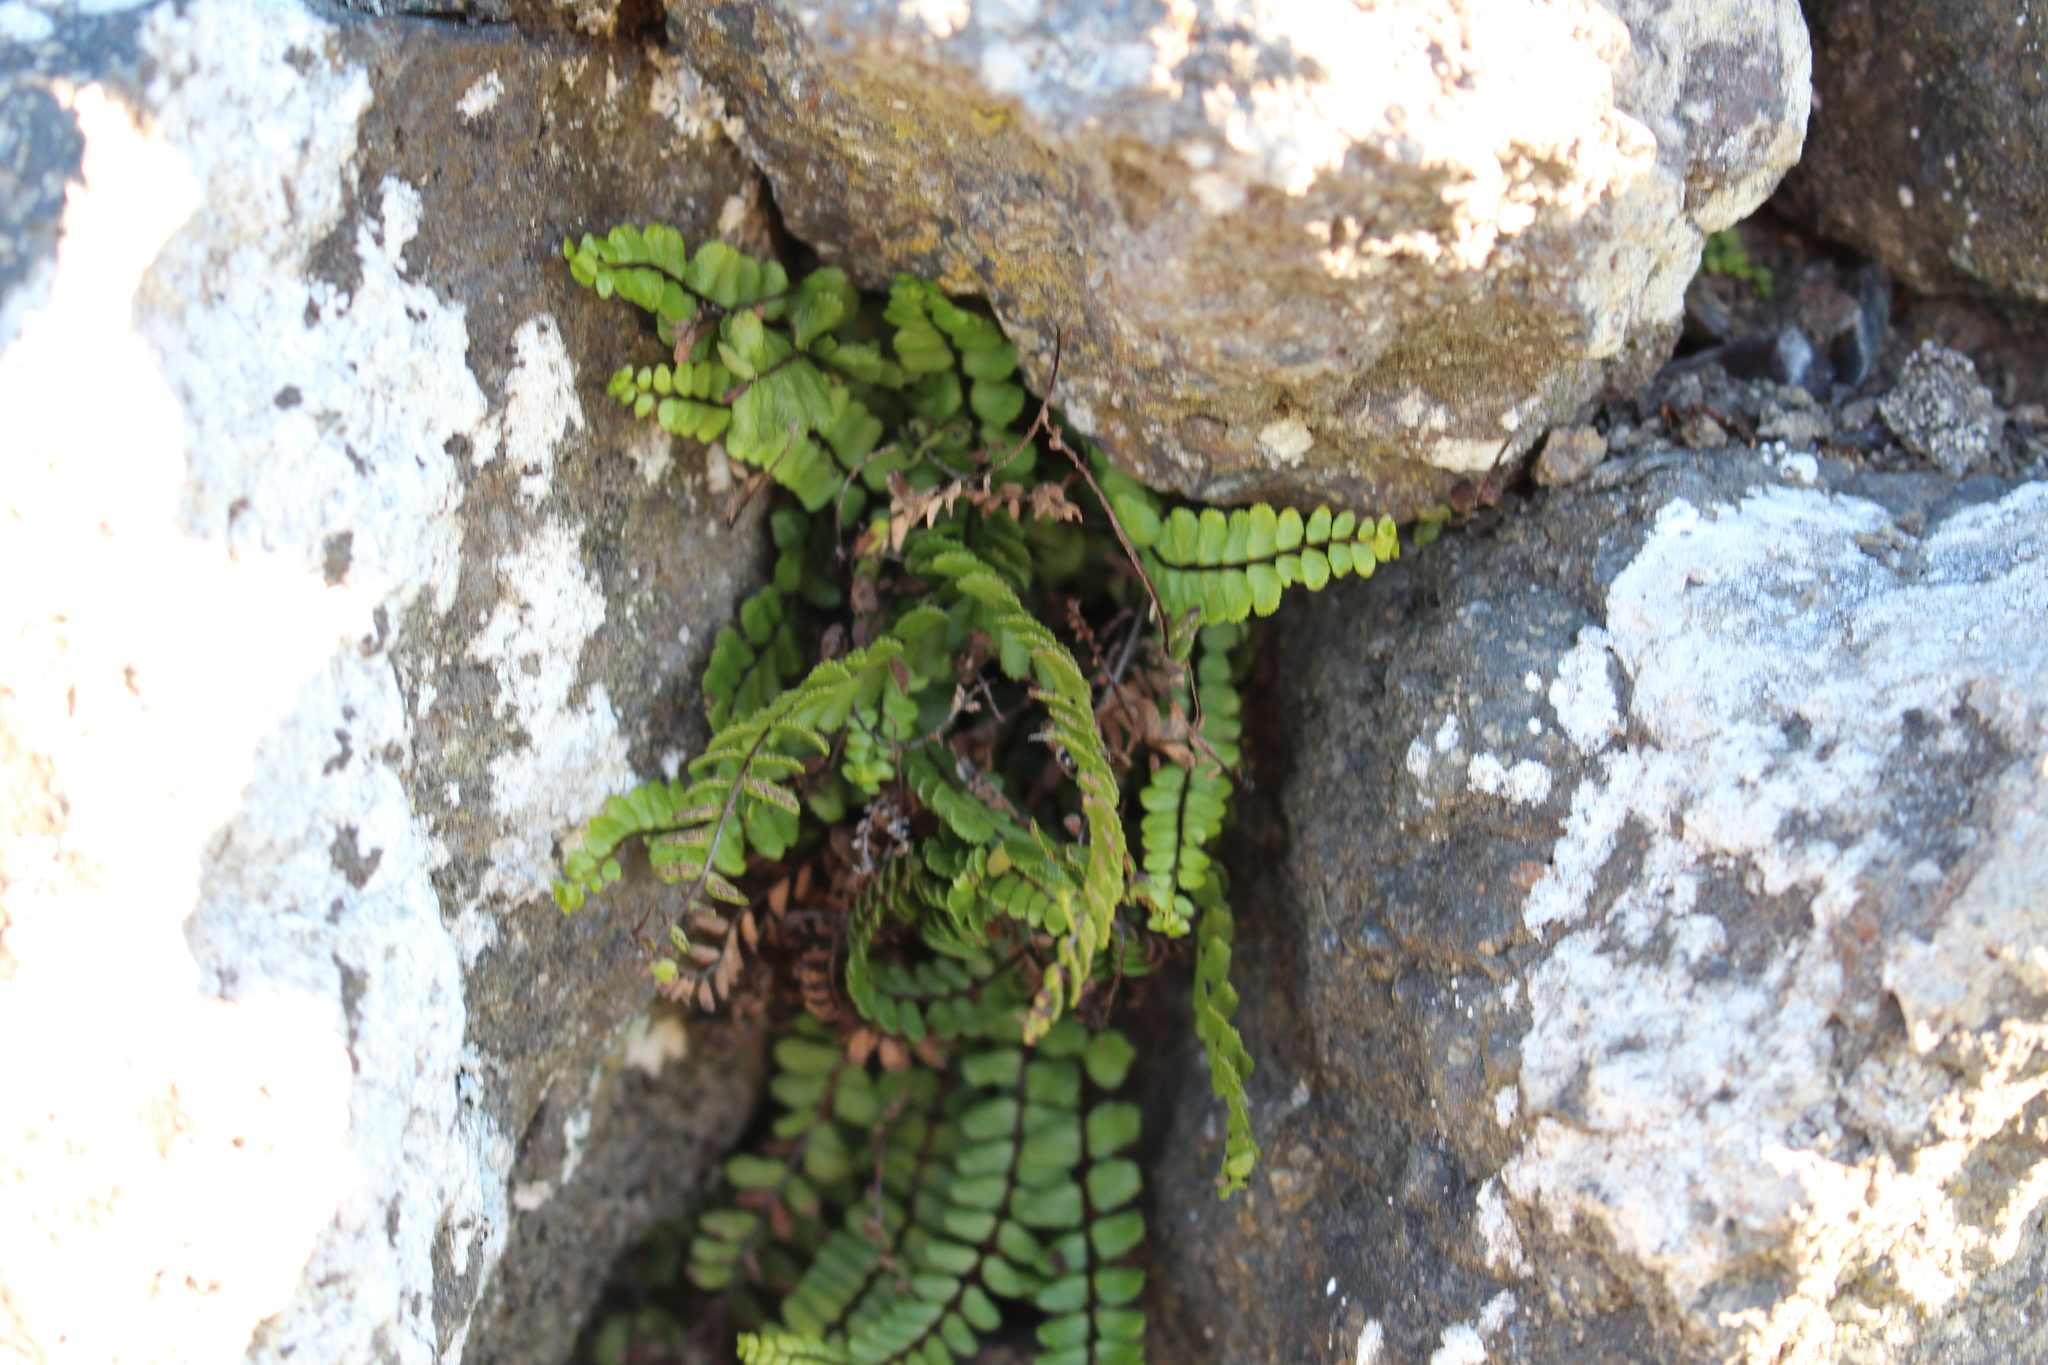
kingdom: Plantae
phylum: Tracheophyta
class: Polypodiopsida
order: Polypodiales
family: Aspleniaceae
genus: Asplenium
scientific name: Asplenium trichomanes
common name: Maidenhair spleenwort
